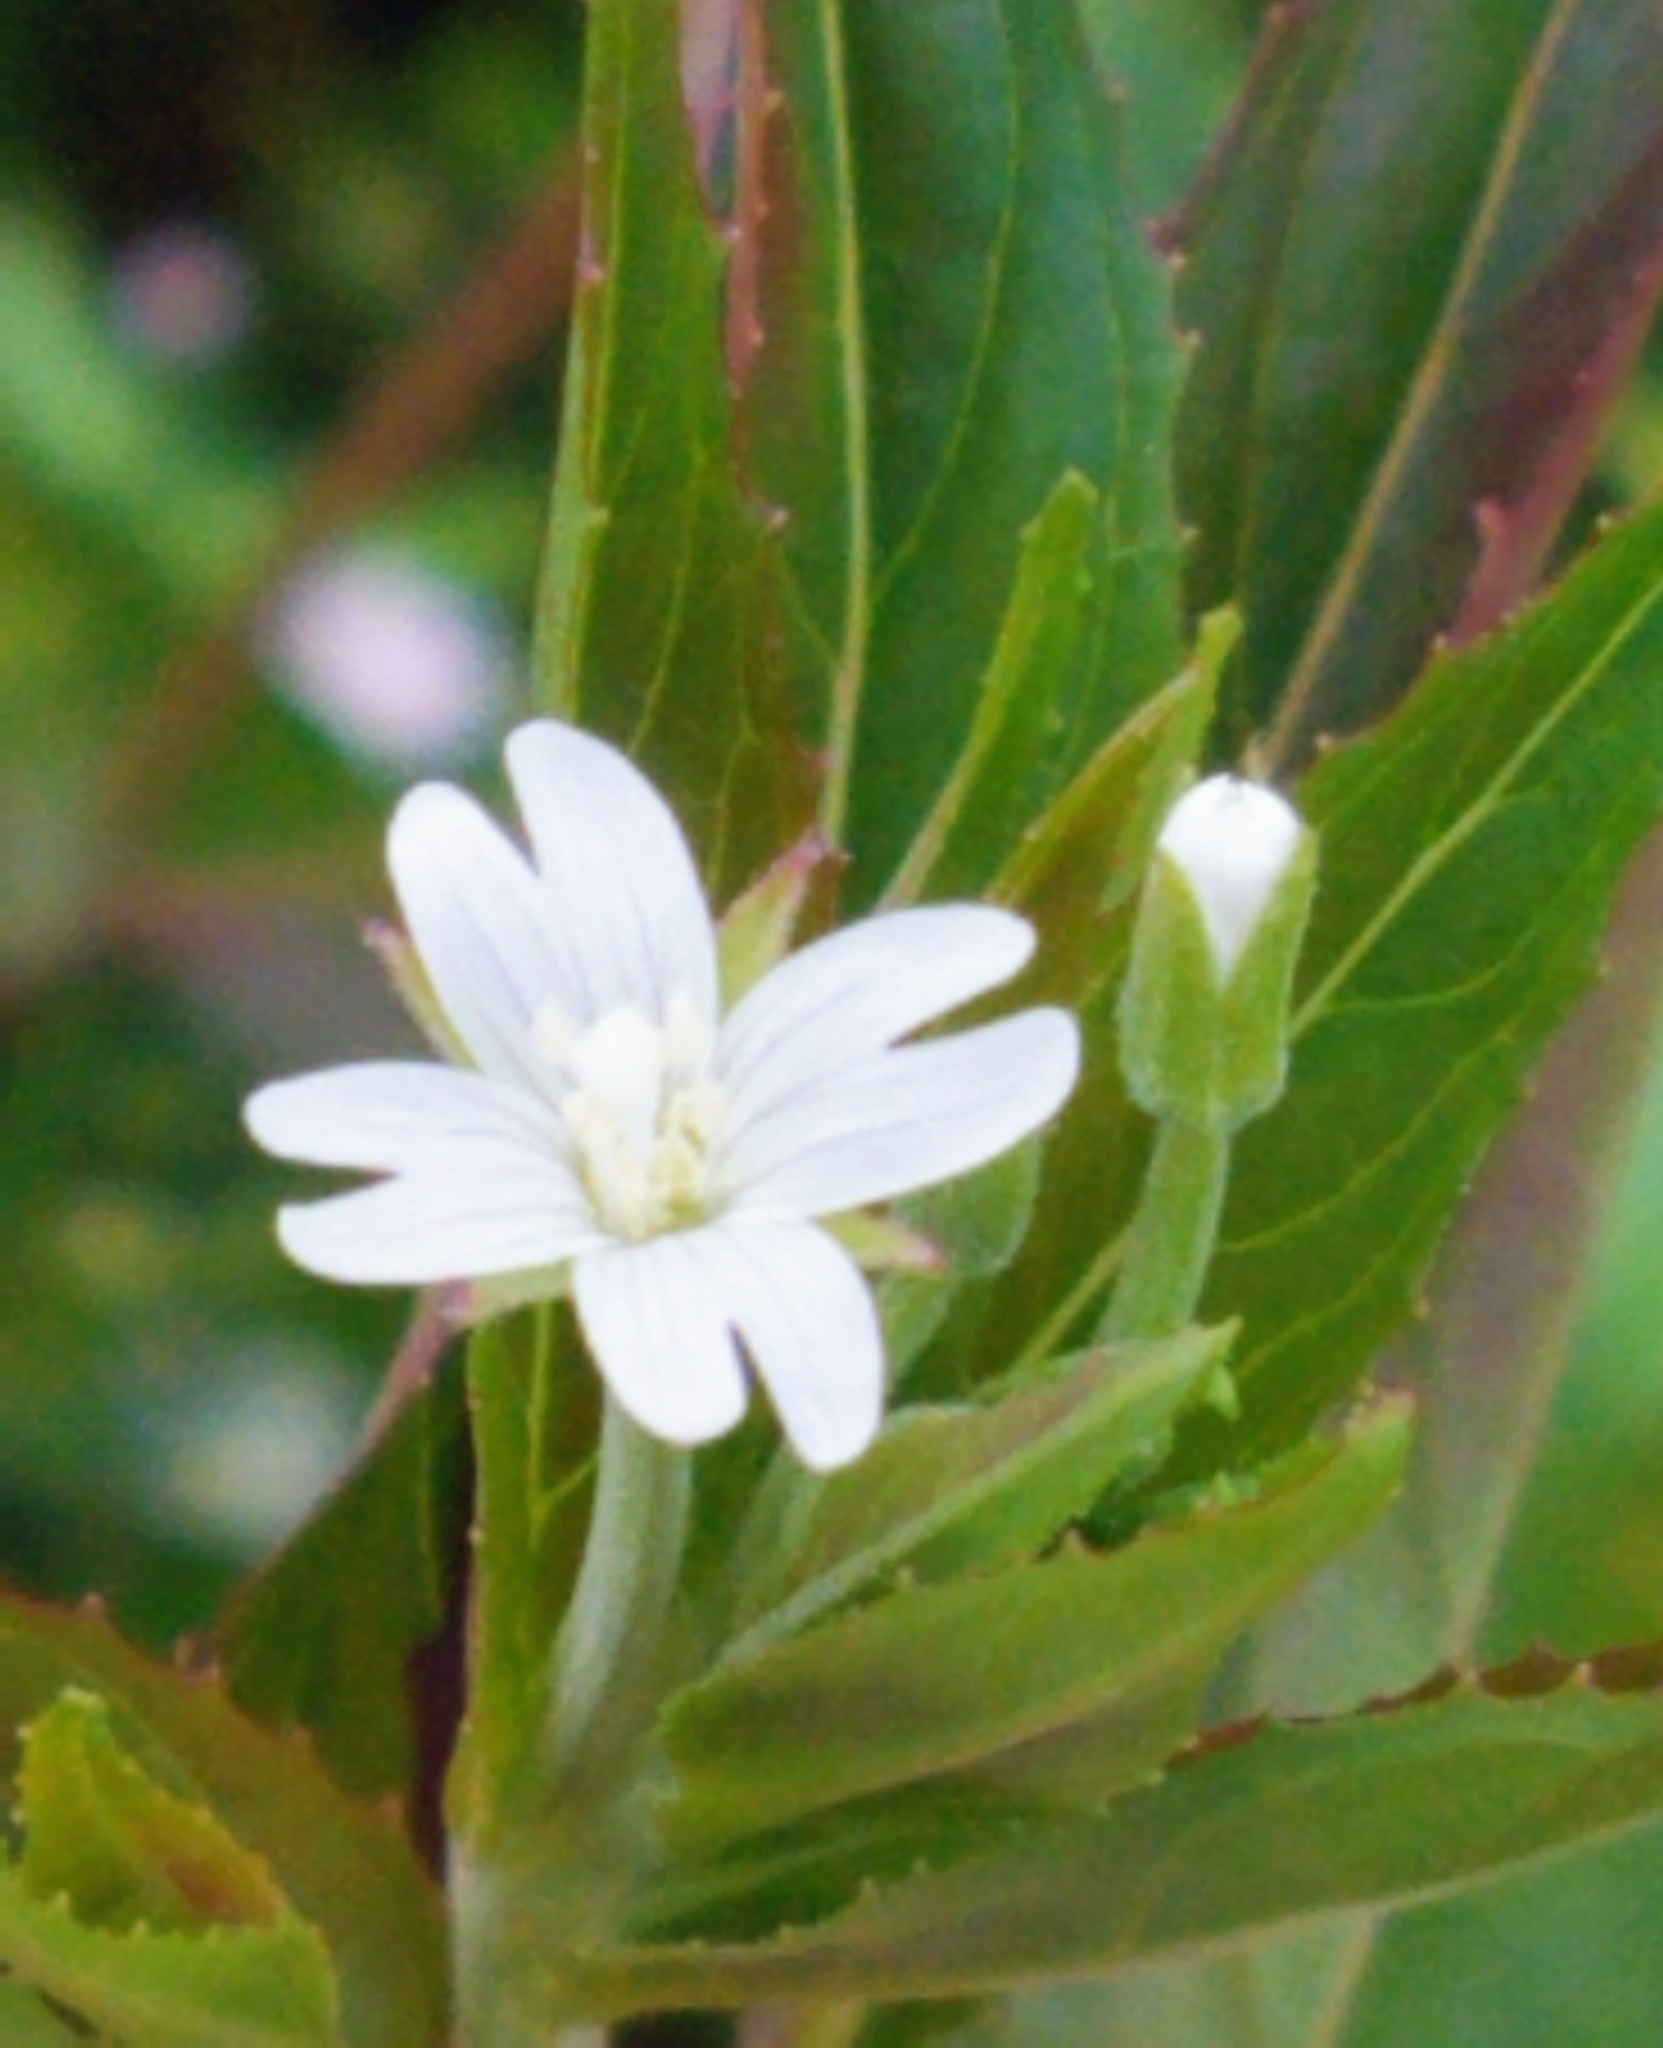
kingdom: Plantae
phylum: Tracheophyta
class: Magnoliopsida
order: Myrtales
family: Onagraceae
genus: Epilobium
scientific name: Epilobium ciliatum
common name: American willowherb
